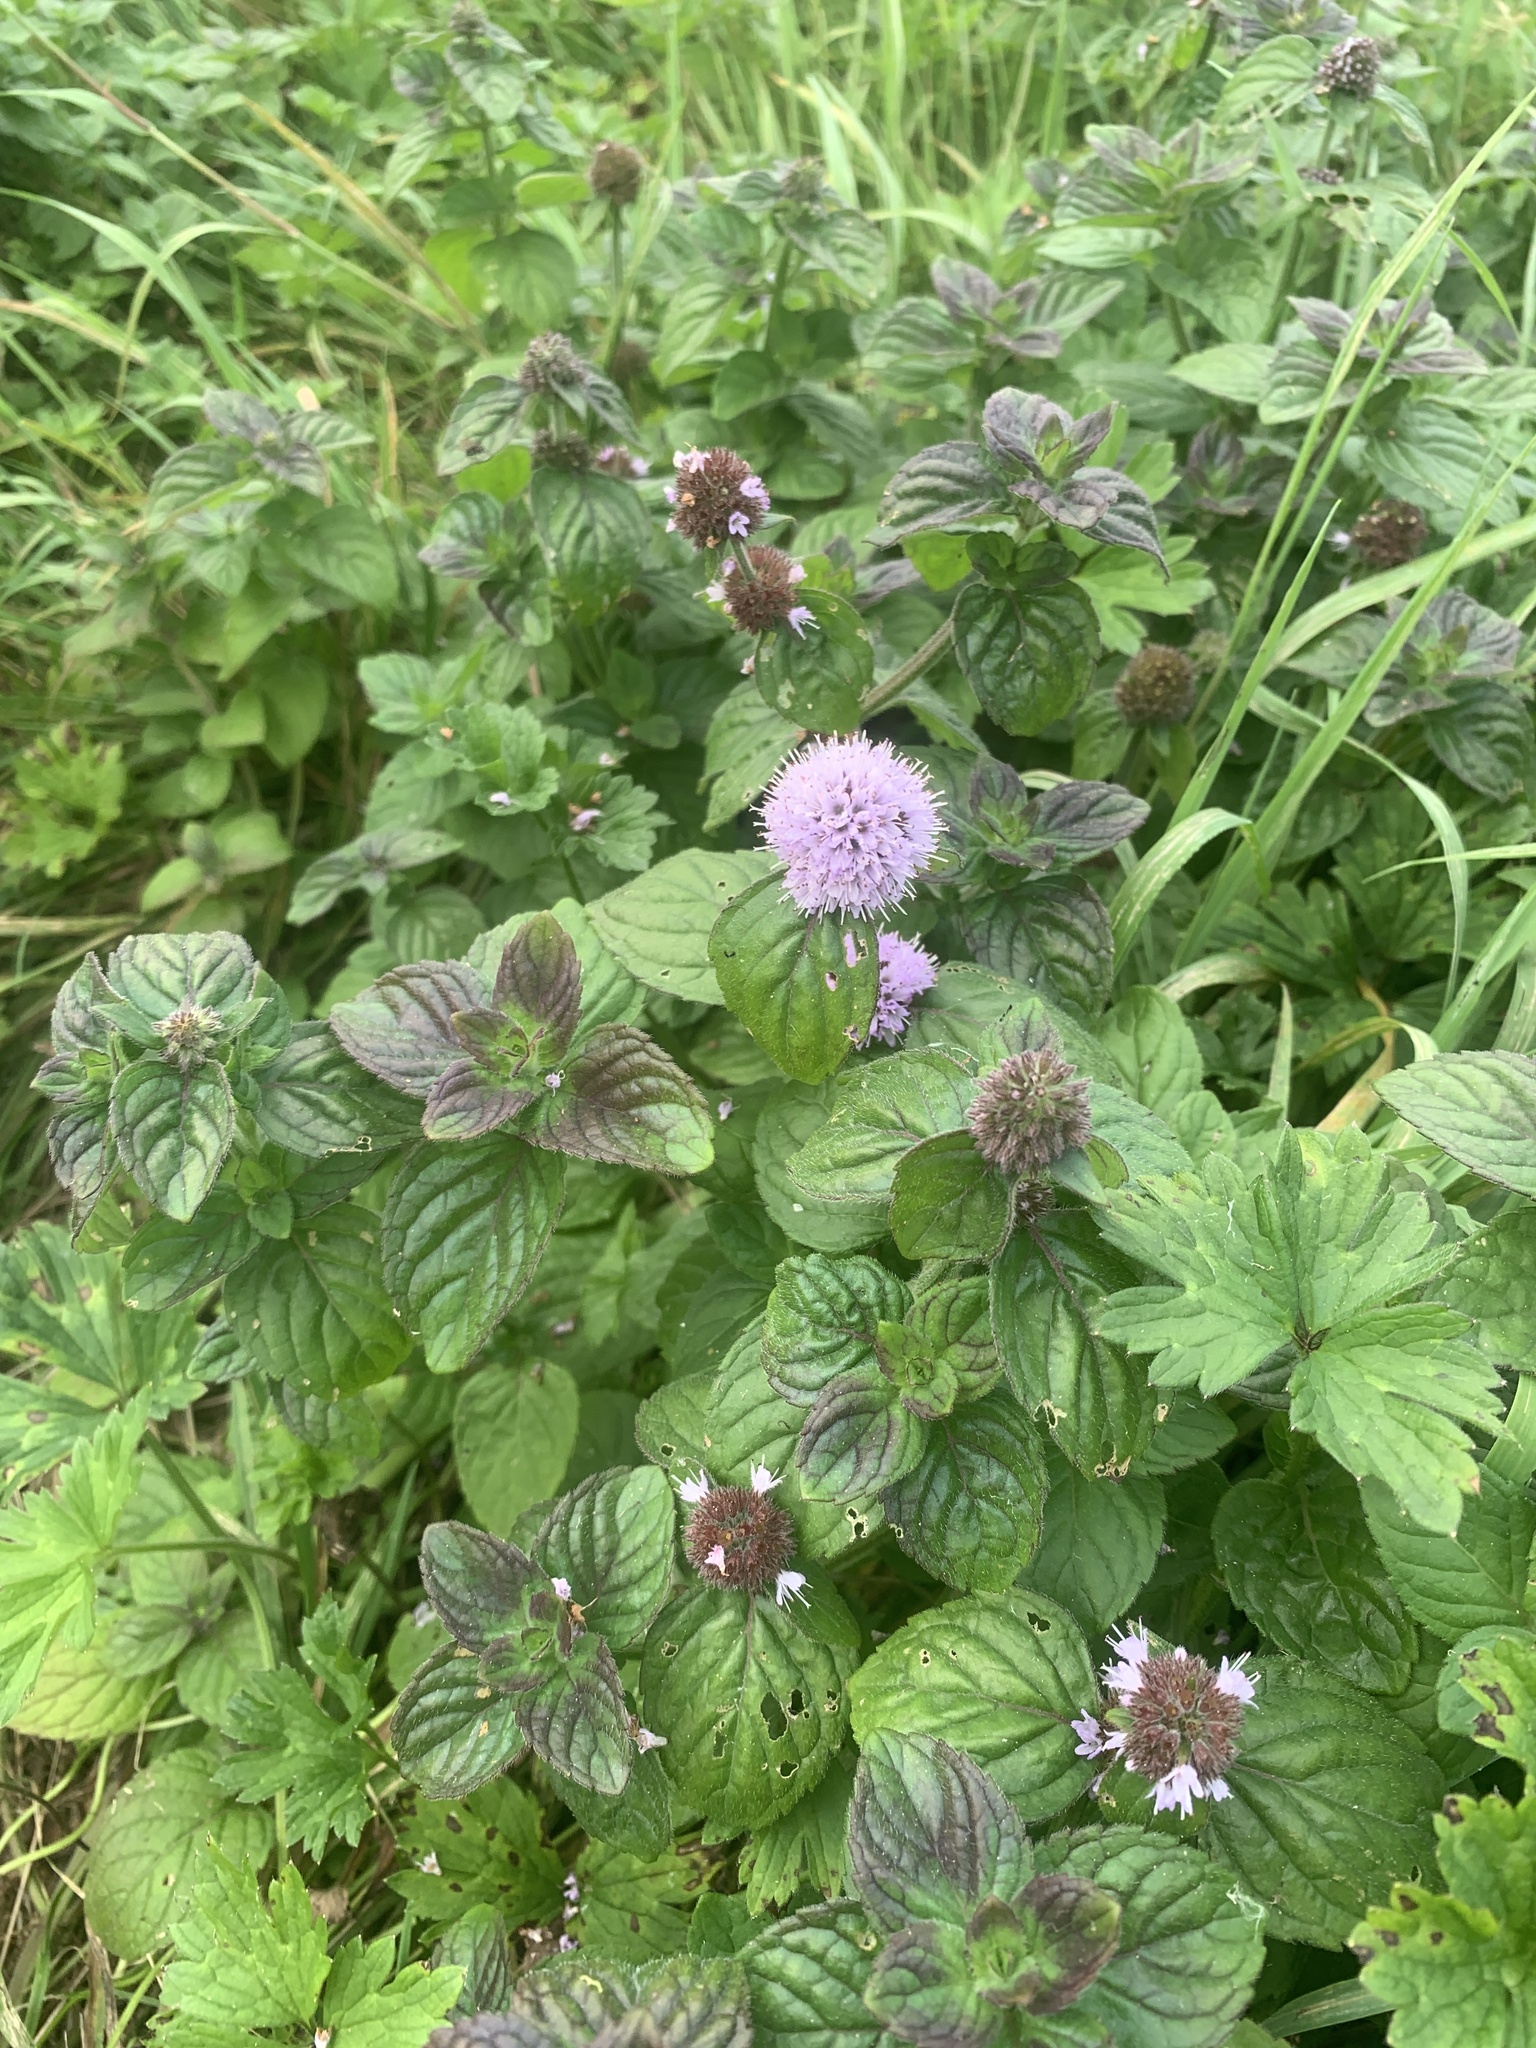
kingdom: Plantae
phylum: Tracheophyta
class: Magnoliopsida
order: Lamiales
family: Lamiaceae
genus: Mentha
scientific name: Mentha aquatica
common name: Water mint
